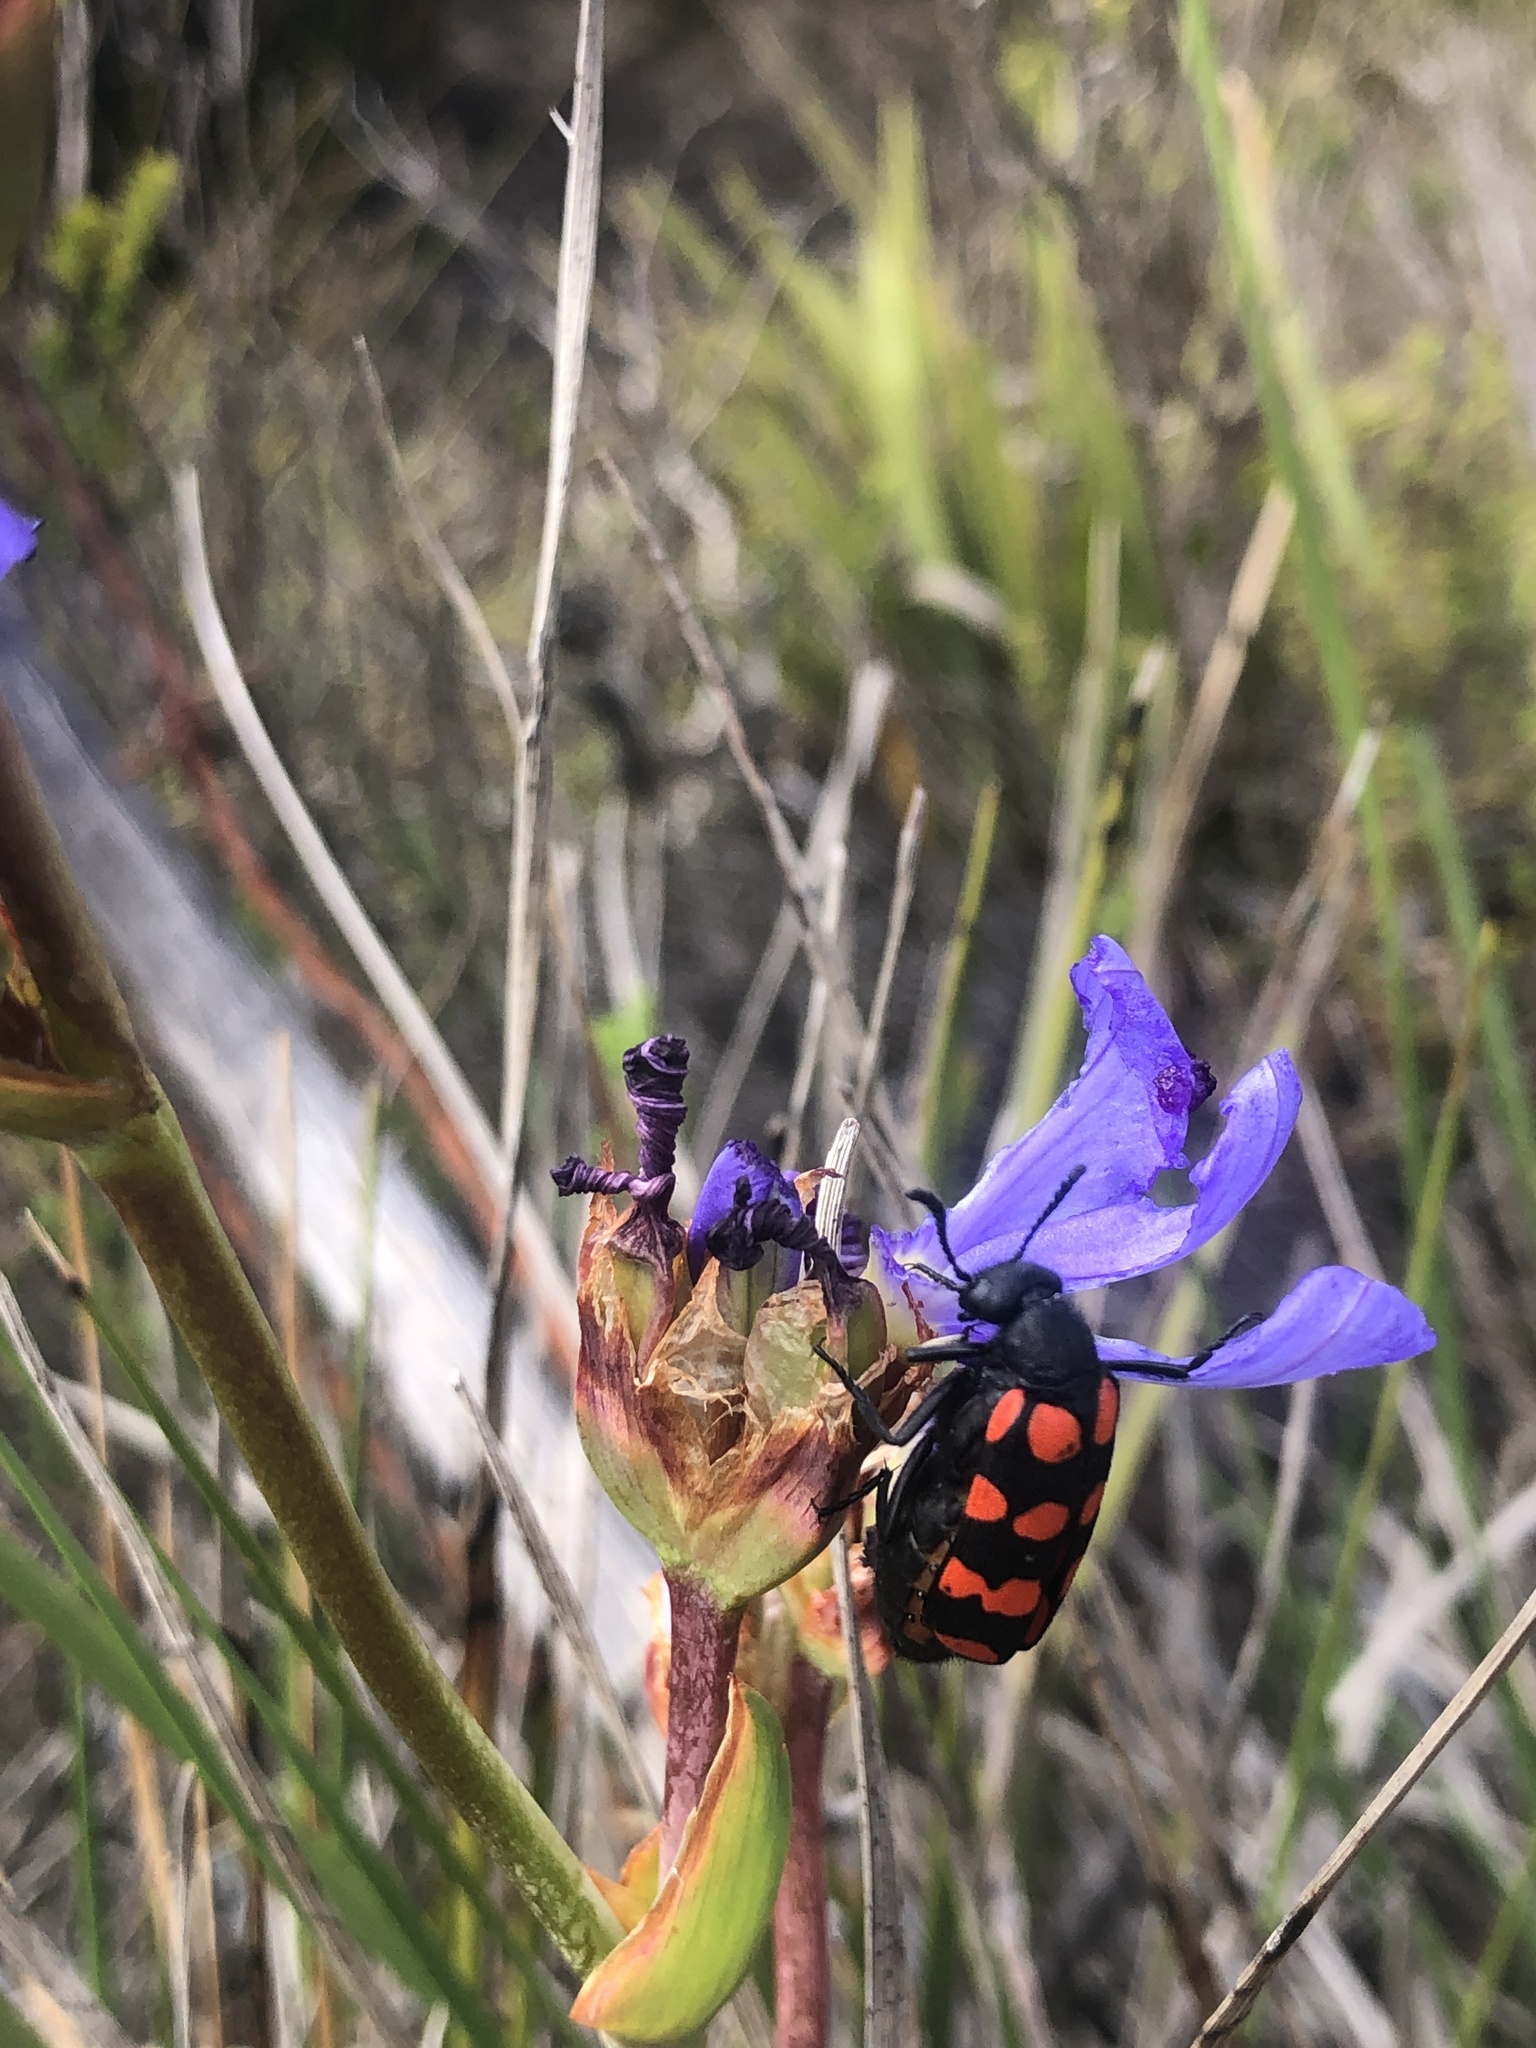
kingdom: Animalia
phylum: Arthropoda
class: Insecta
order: Coleoptera
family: Meloidae
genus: Ceroctis
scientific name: Ceroctis gyllenhalli
